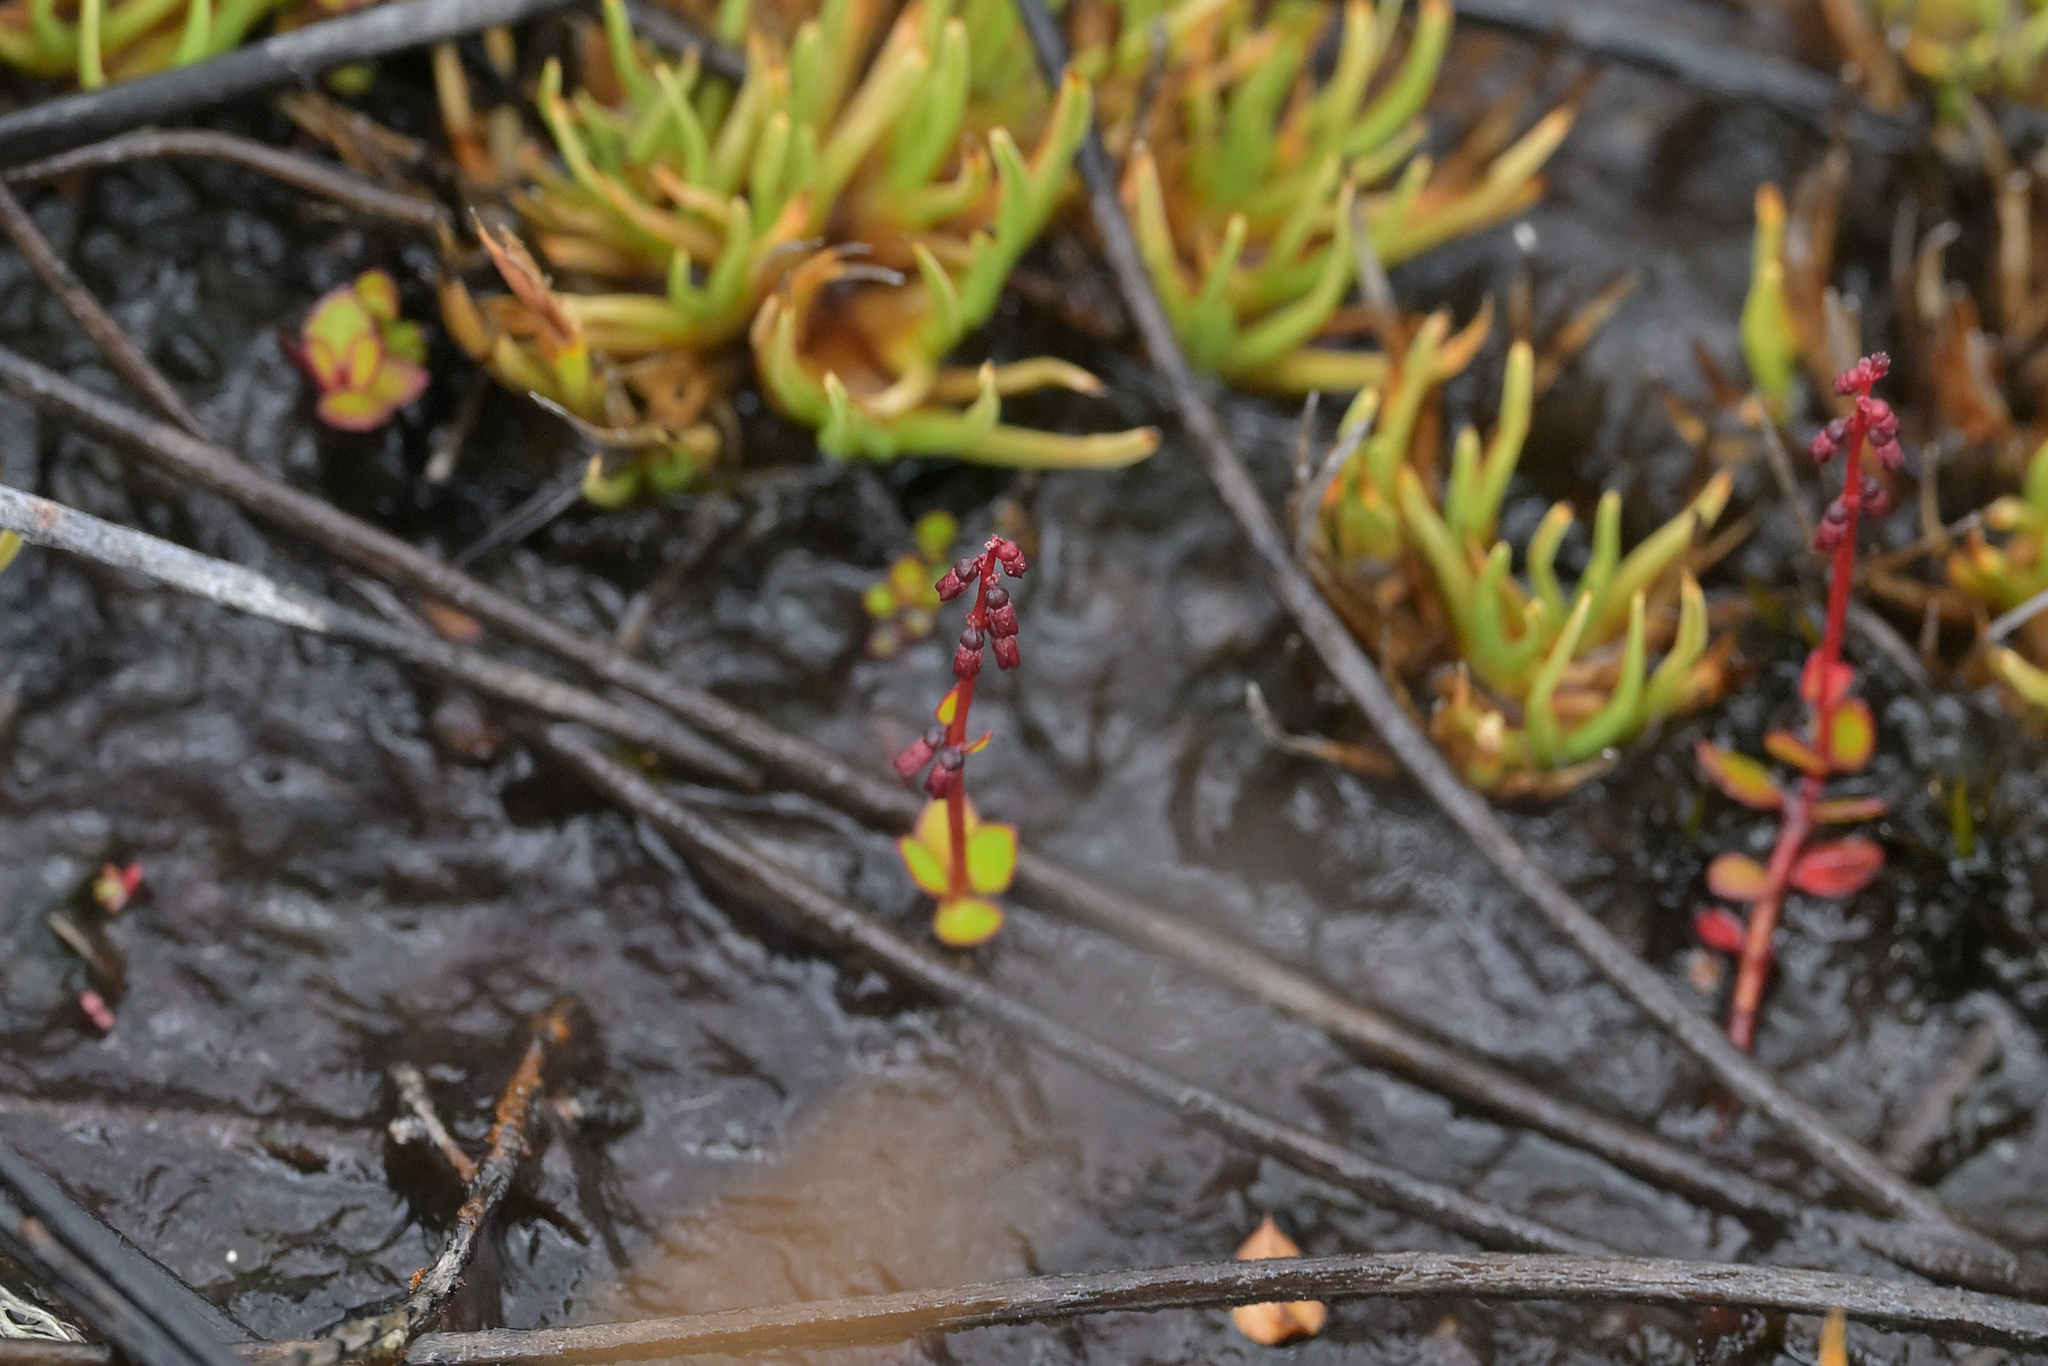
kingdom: Plantae
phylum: Tracheophyta
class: Magnoliopsida
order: Saxifragales
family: Haloragaceae
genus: Gonocarpus
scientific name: Gonocarpus micranthus
